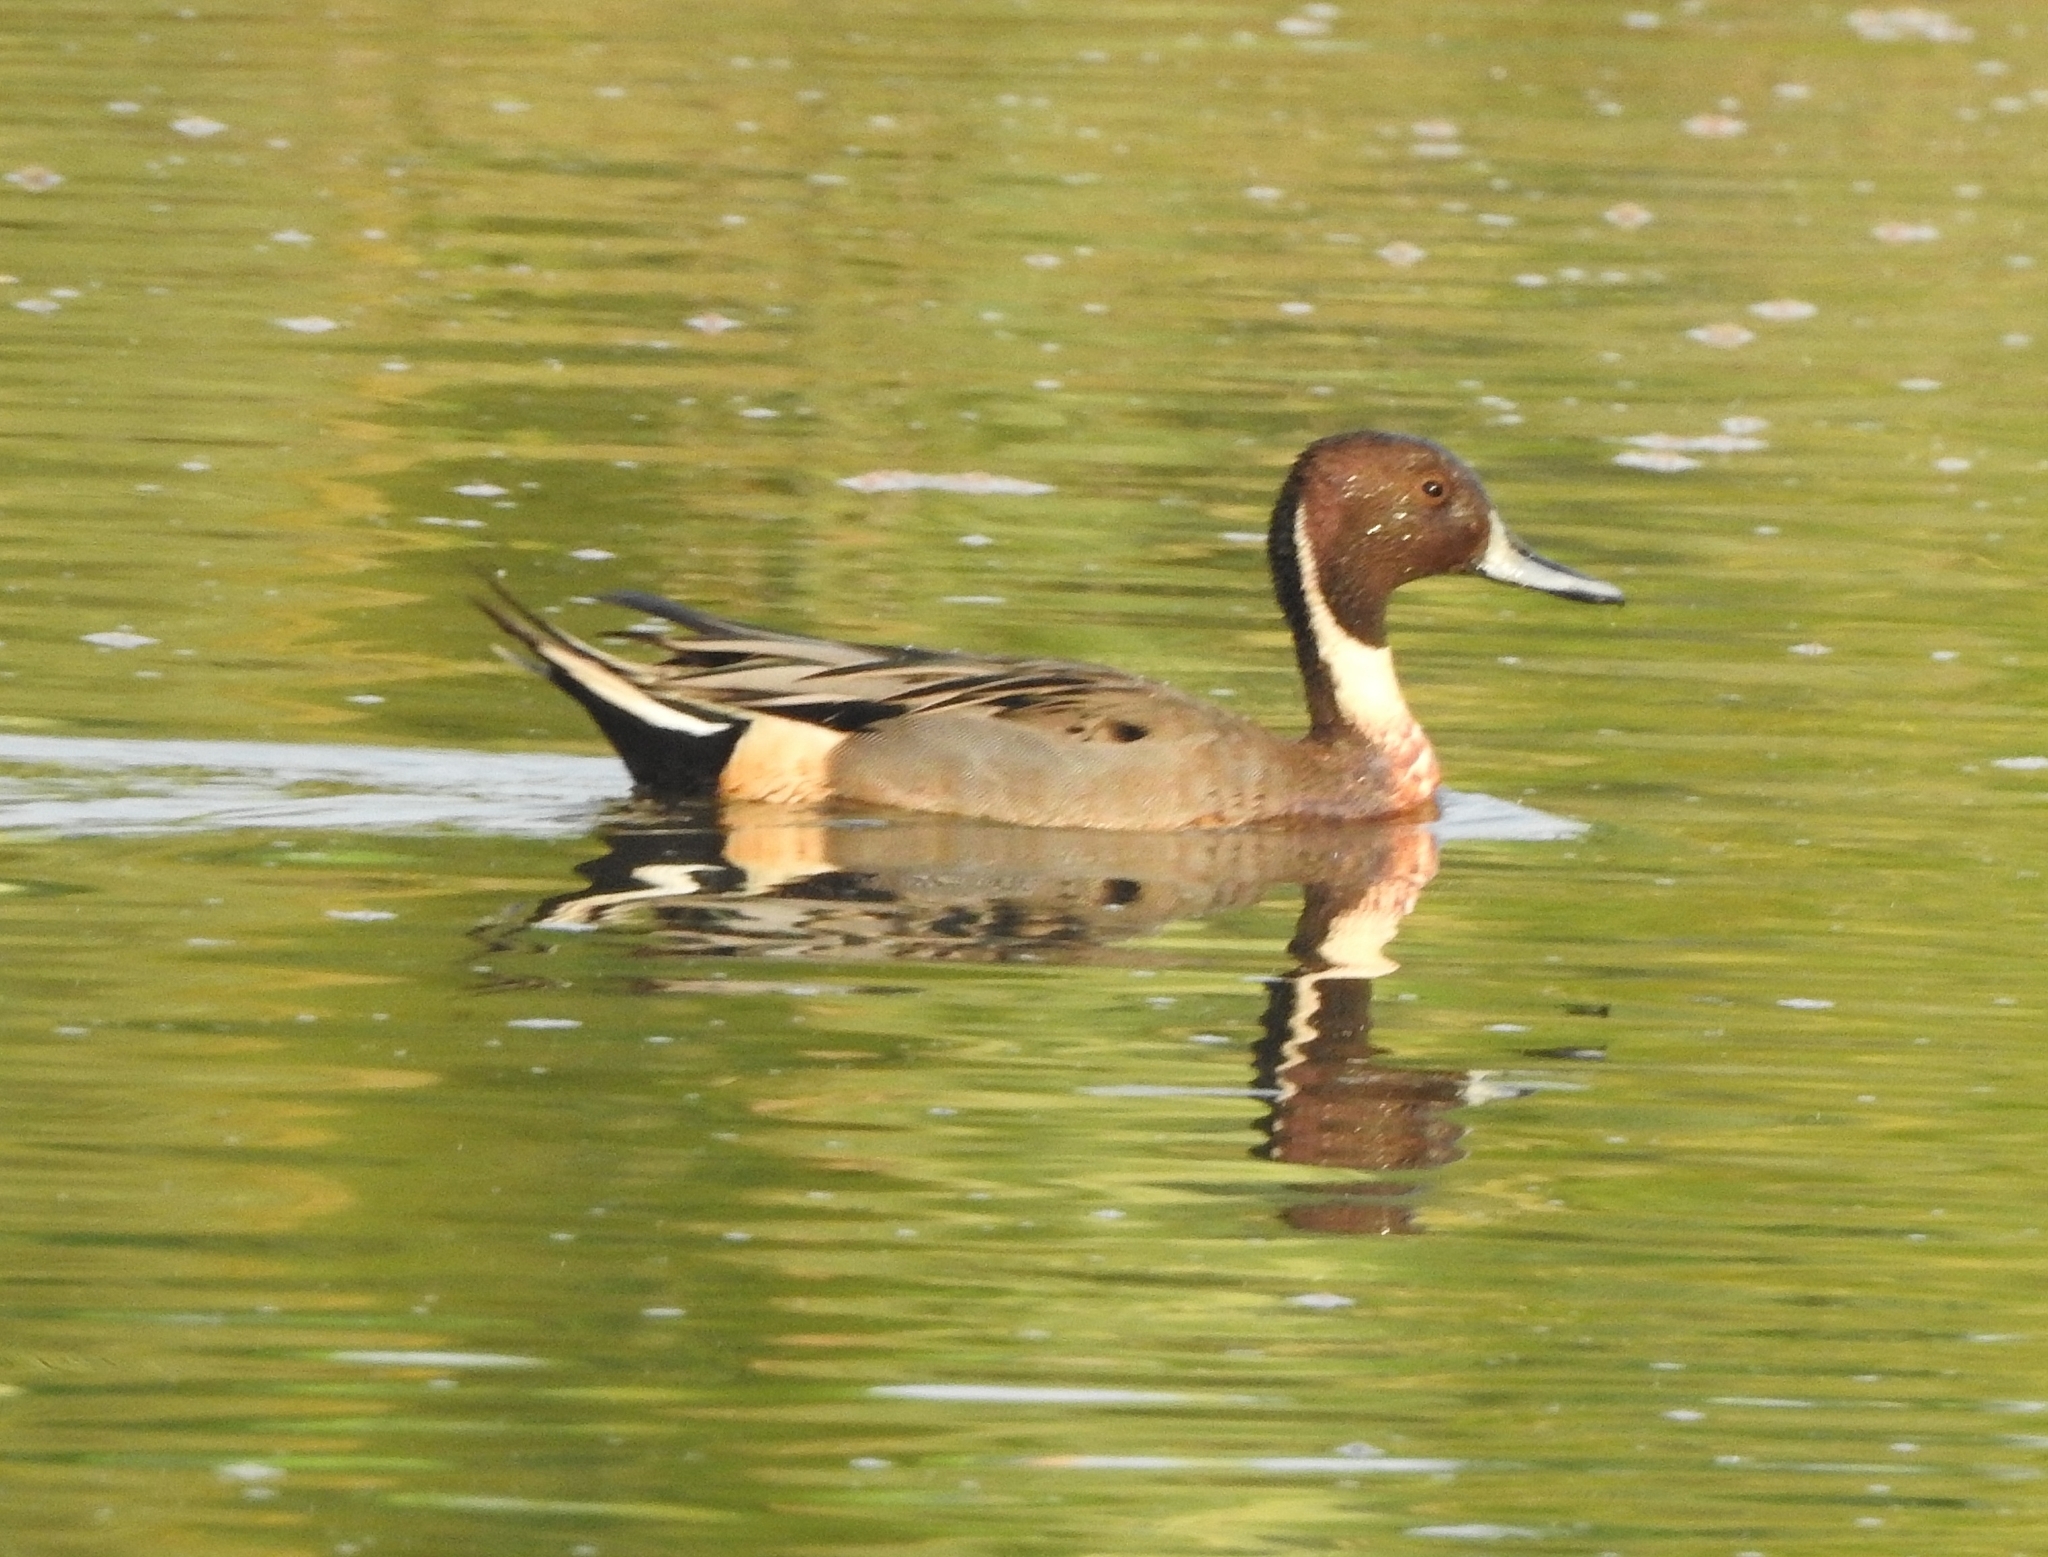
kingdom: Animalia
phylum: Chordata
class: Aves
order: Anseriformes
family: Anatidae
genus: Anas
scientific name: Anas acuta
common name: Northern pintail
